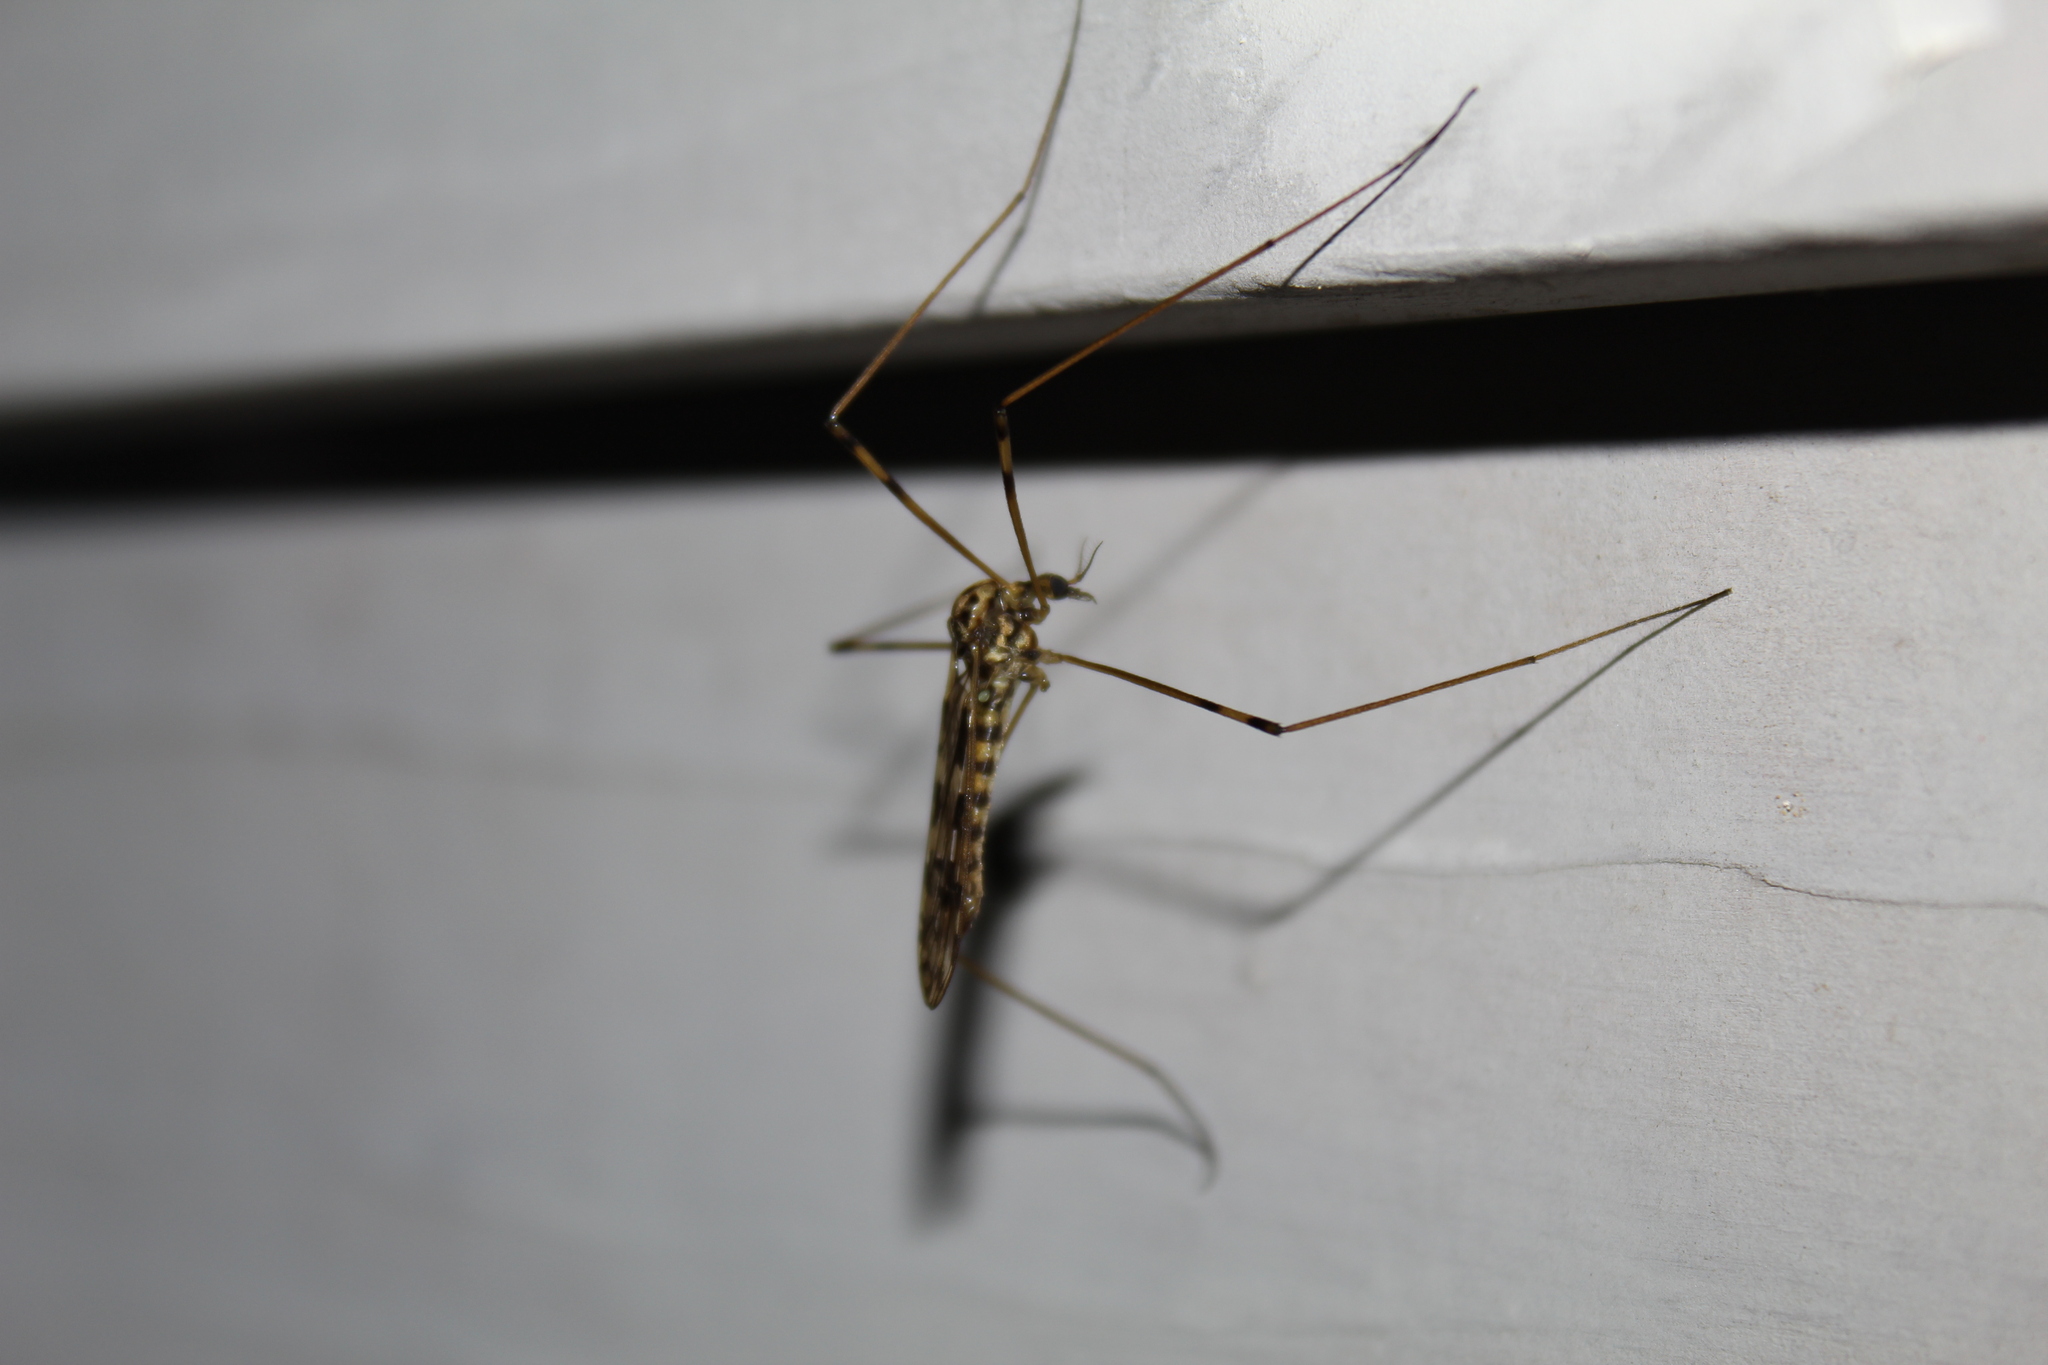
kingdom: Animalia
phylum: Arthropoda
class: Insecta
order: Diptera
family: Limoniidae
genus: Limonia
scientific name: Limonia cinctipes
